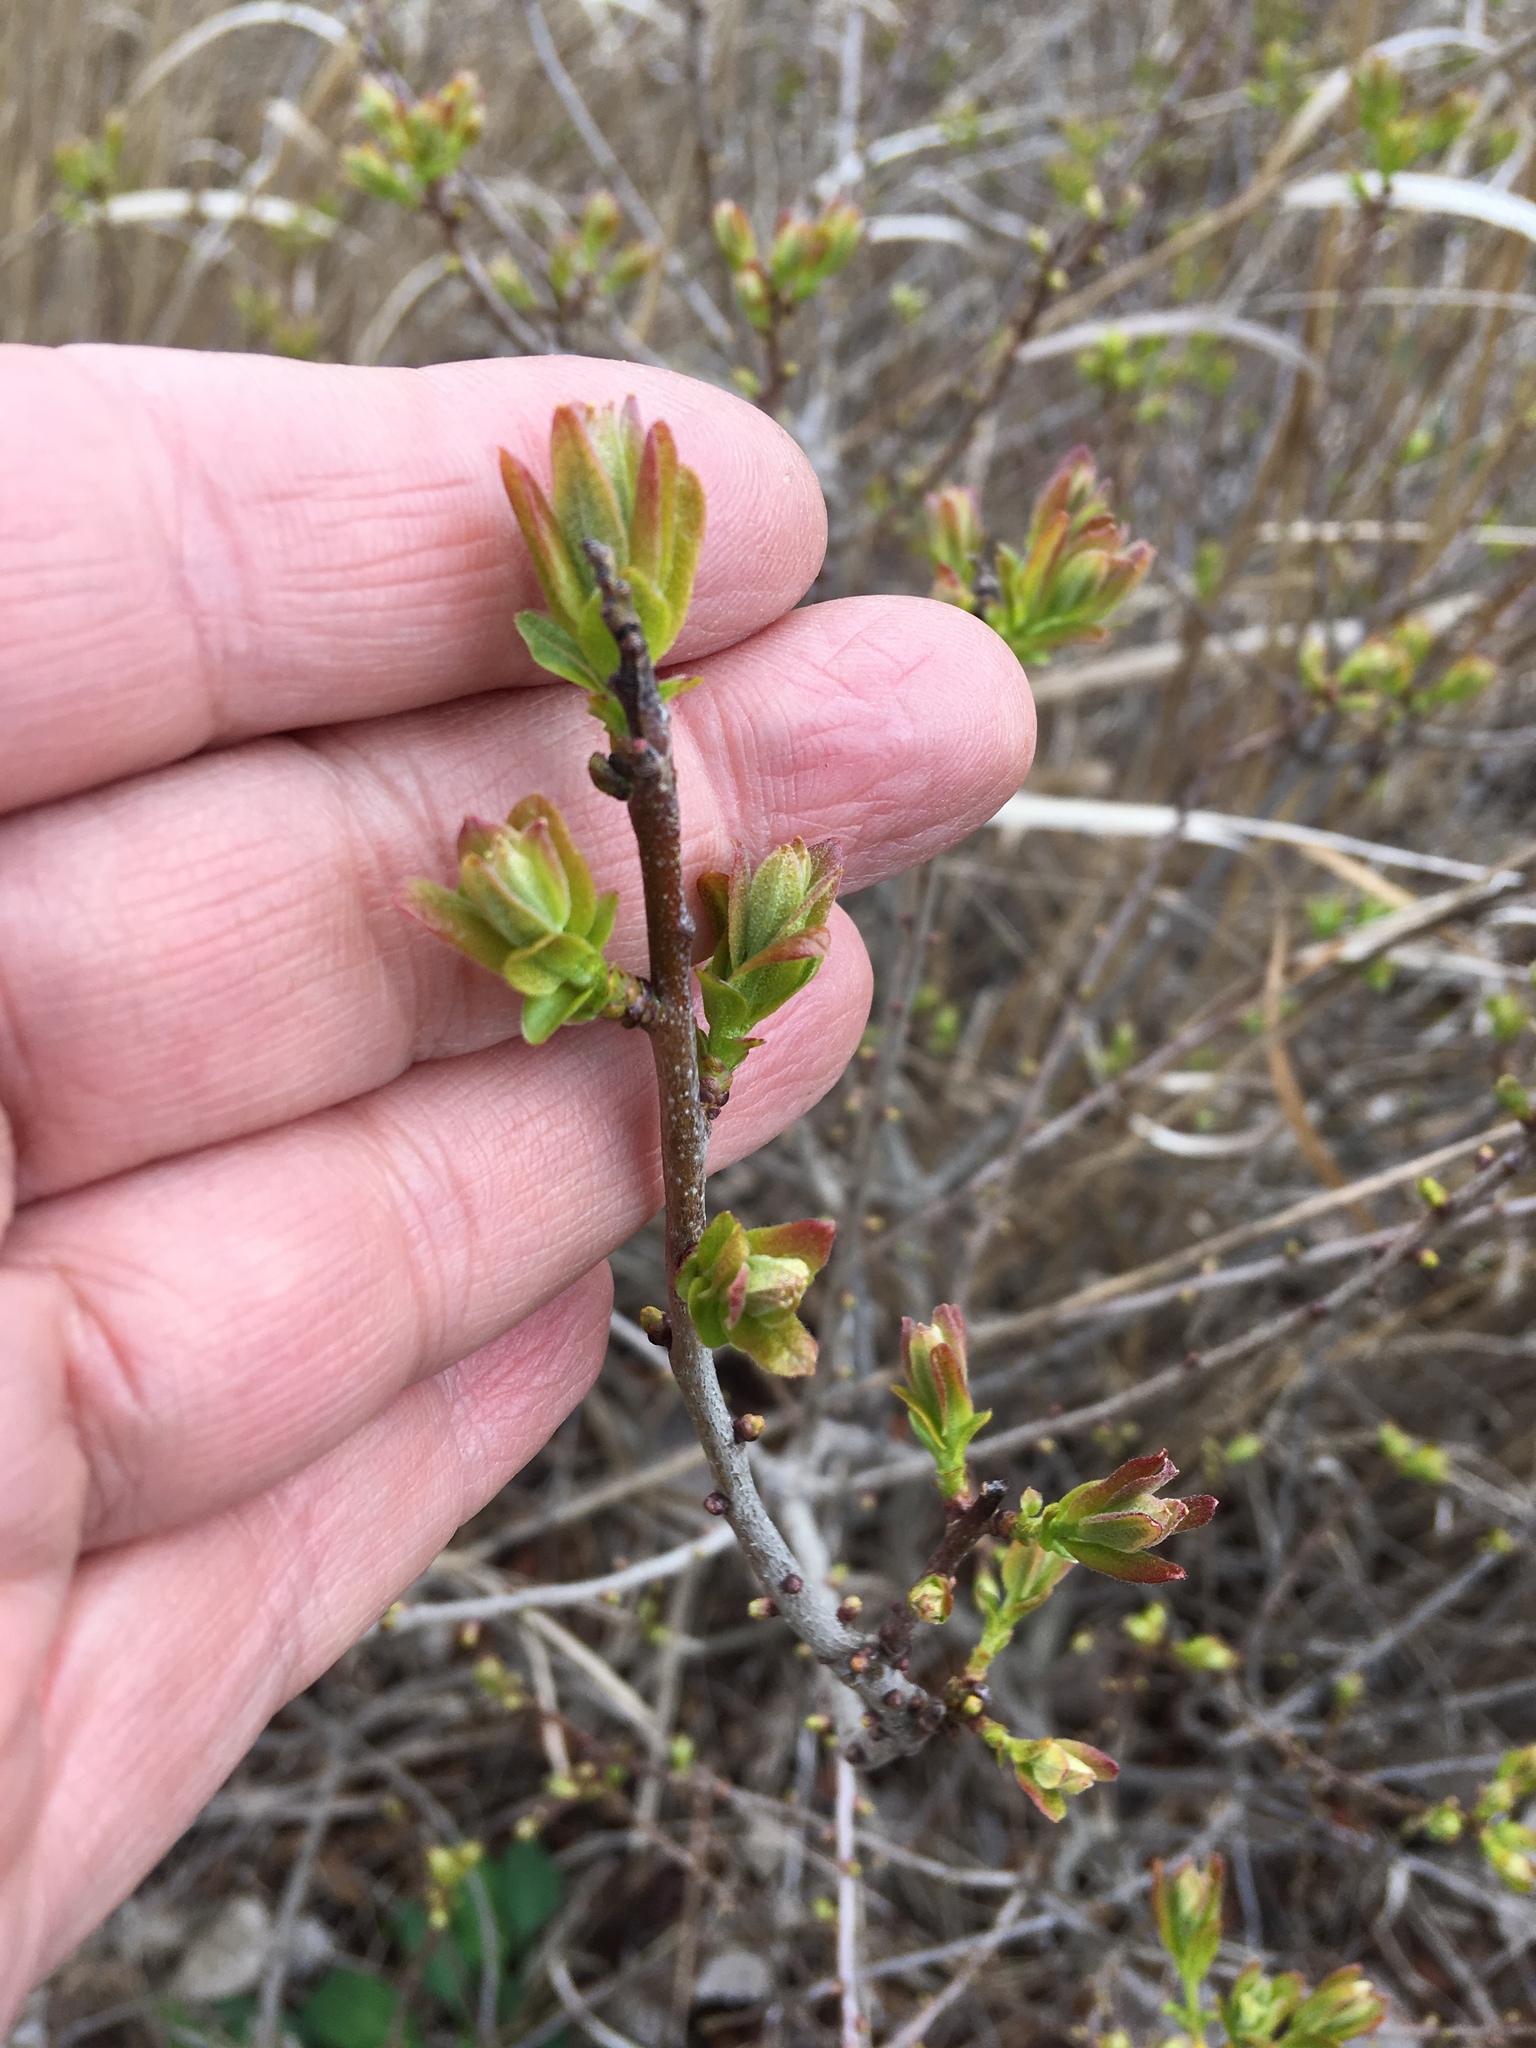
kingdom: Plantae
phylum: Tracheophyta
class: Magnoliopsida
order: Fagales
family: Myricaceae
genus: Morella
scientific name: Morella pensylvanica
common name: Northern bayberry
